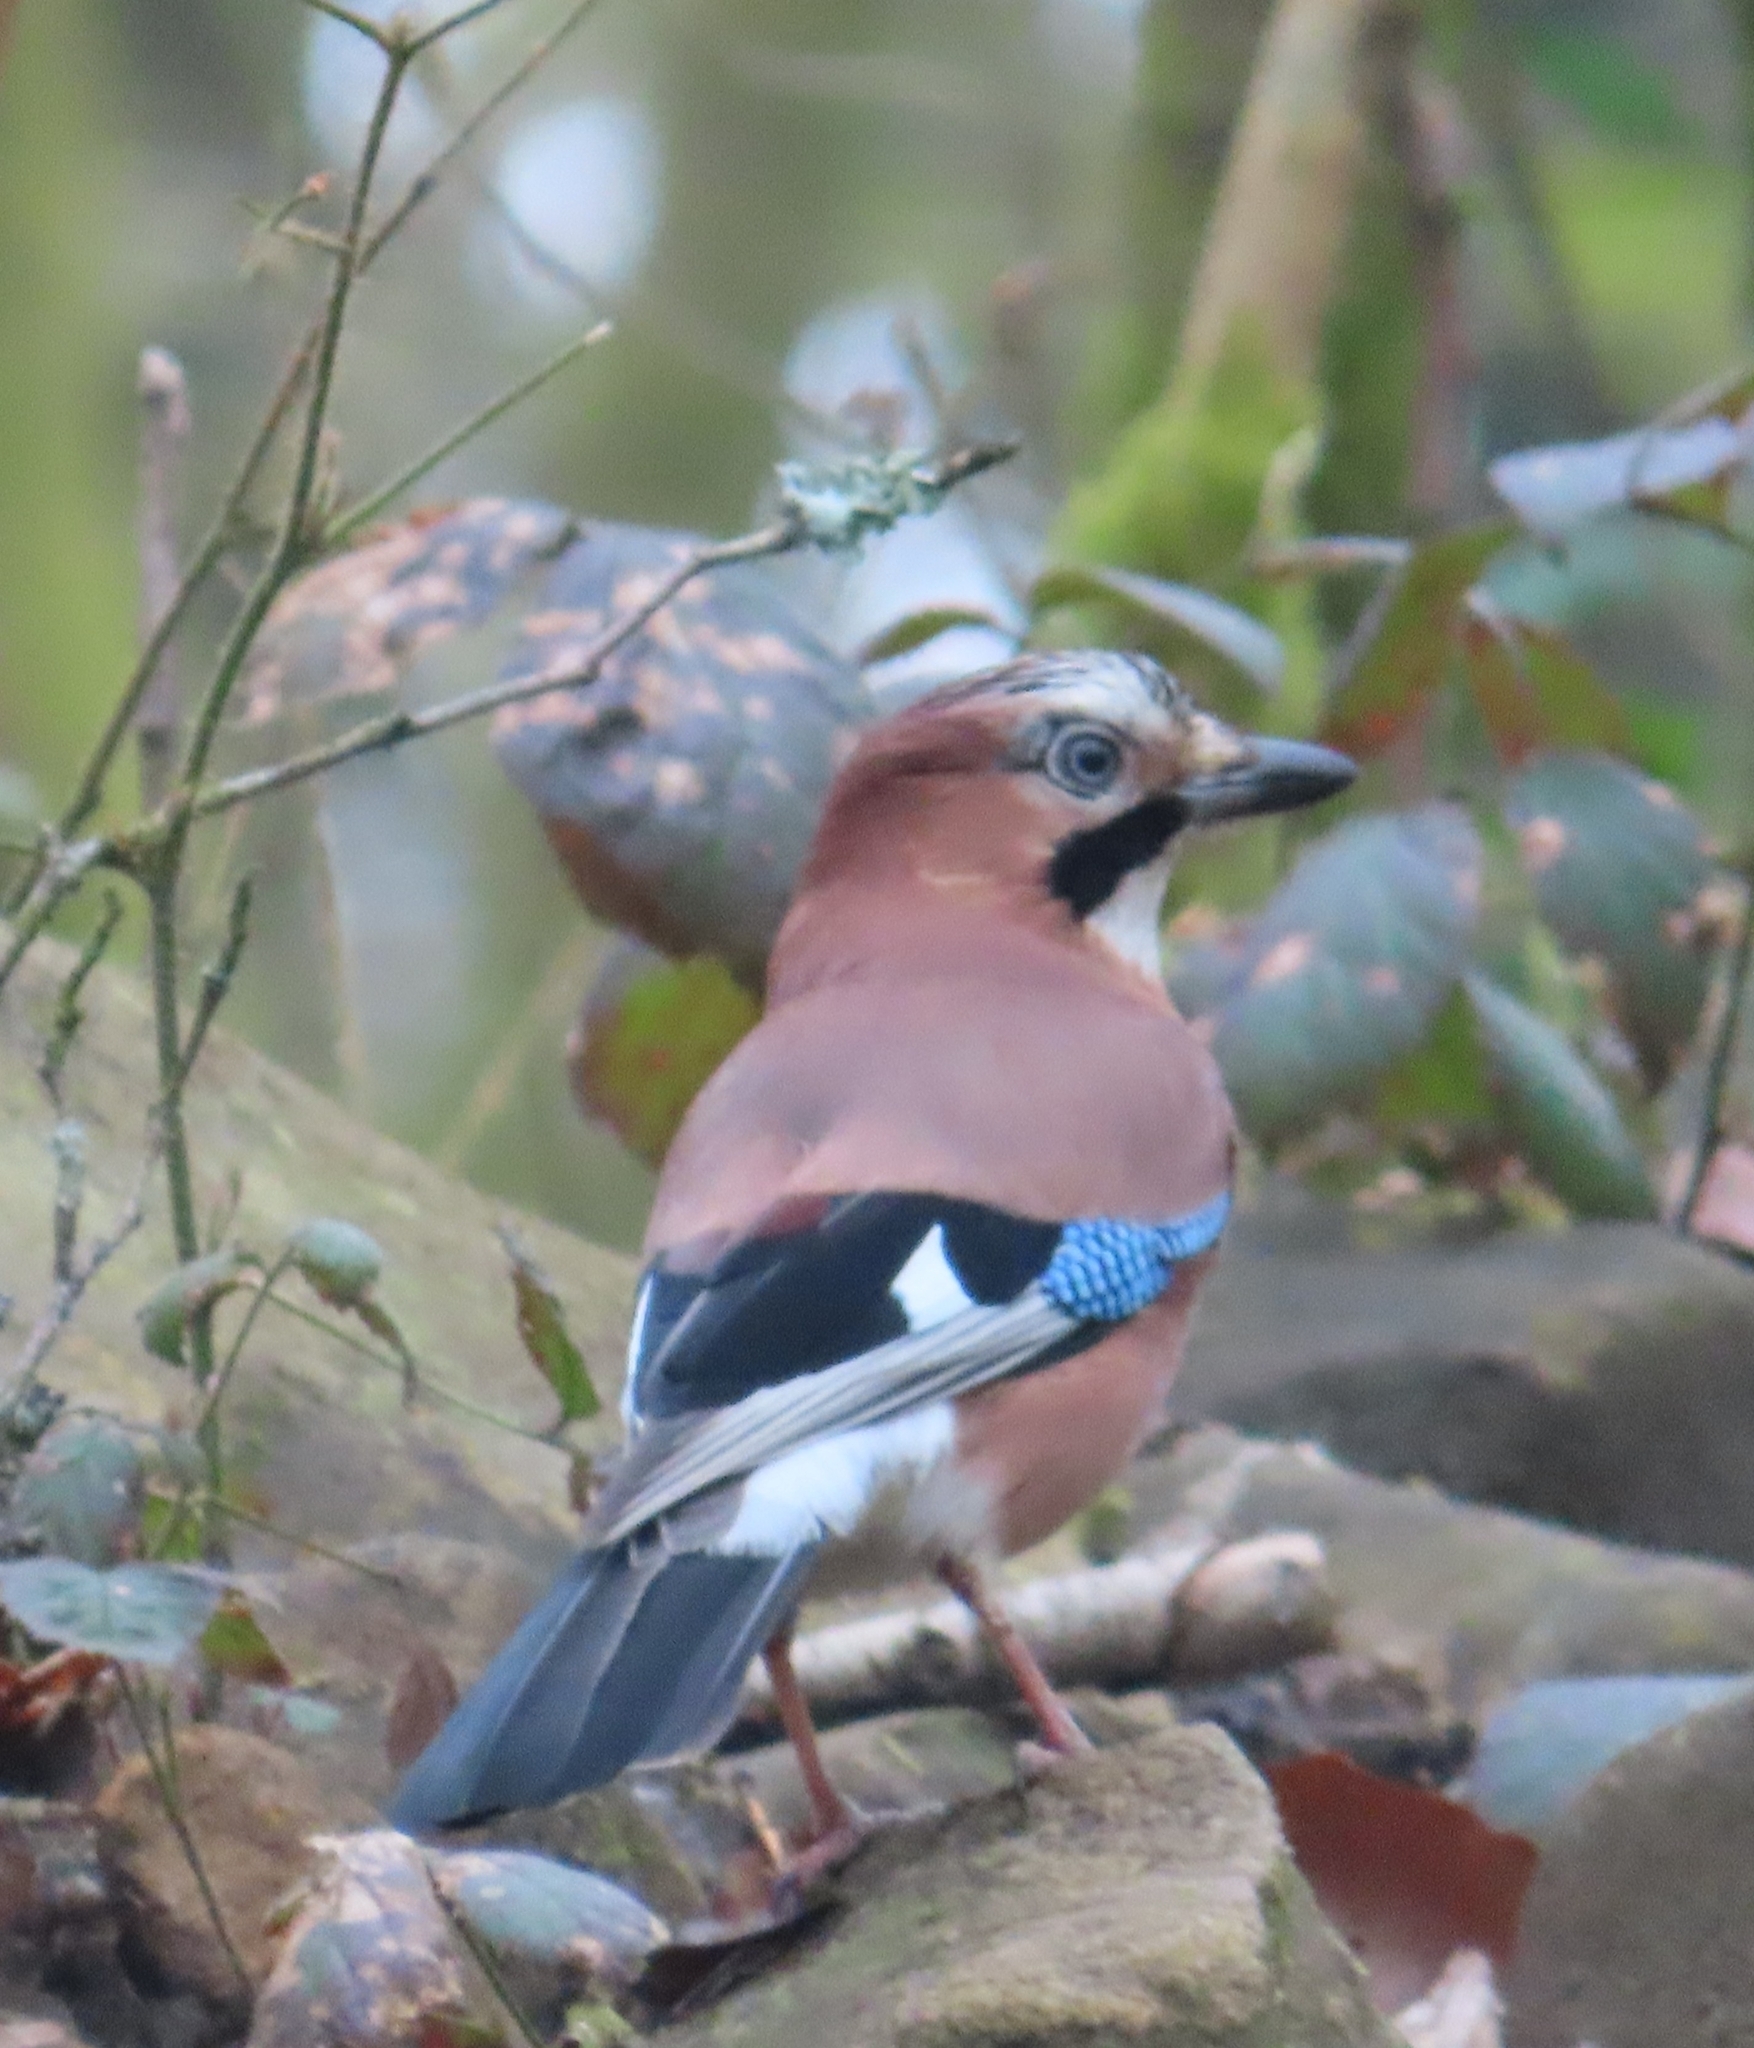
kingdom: Animalia
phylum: Chordata
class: Aves
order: Passeriformes
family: Corvidae
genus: Garrulus
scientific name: Garrulus glandarius
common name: Eurasian jay
